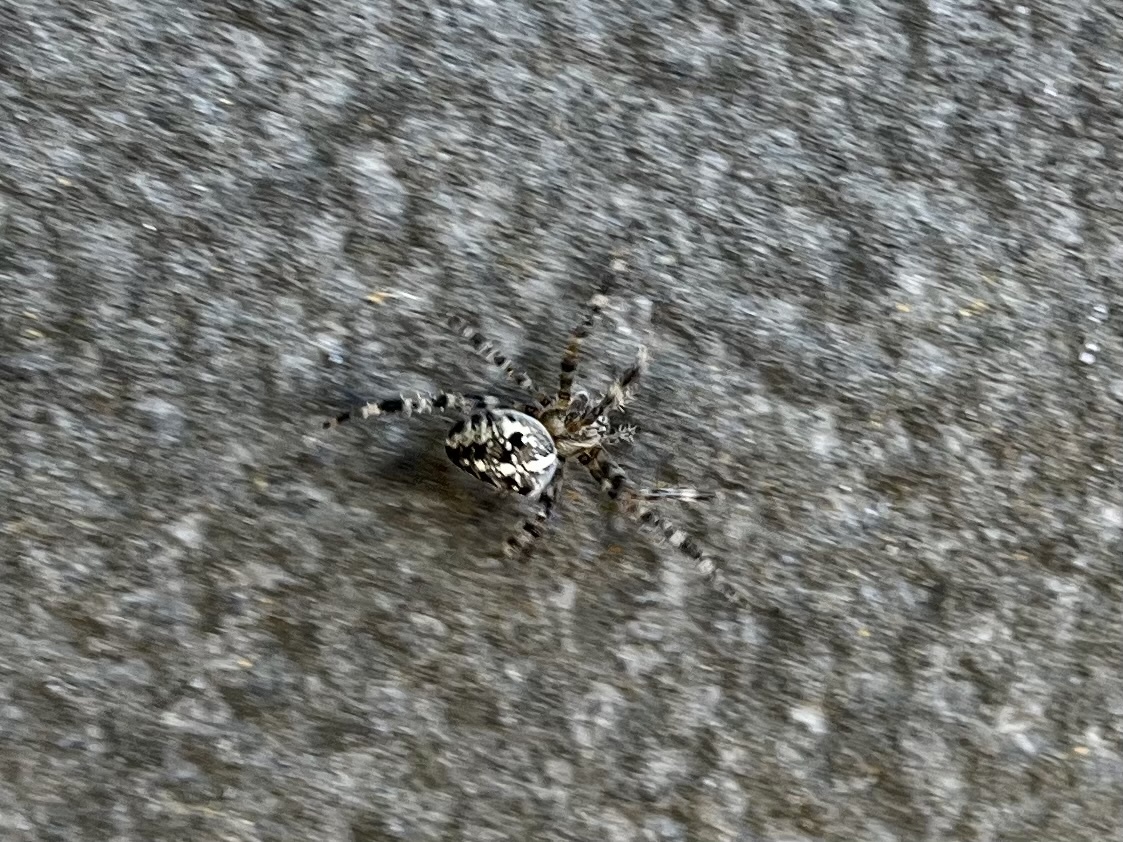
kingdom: Animalia
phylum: Arthropoda
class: Arachnida
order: Araneae
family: Araneidae
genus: Araneus
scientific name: Araneus diadematus
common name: Cross orbweaver
